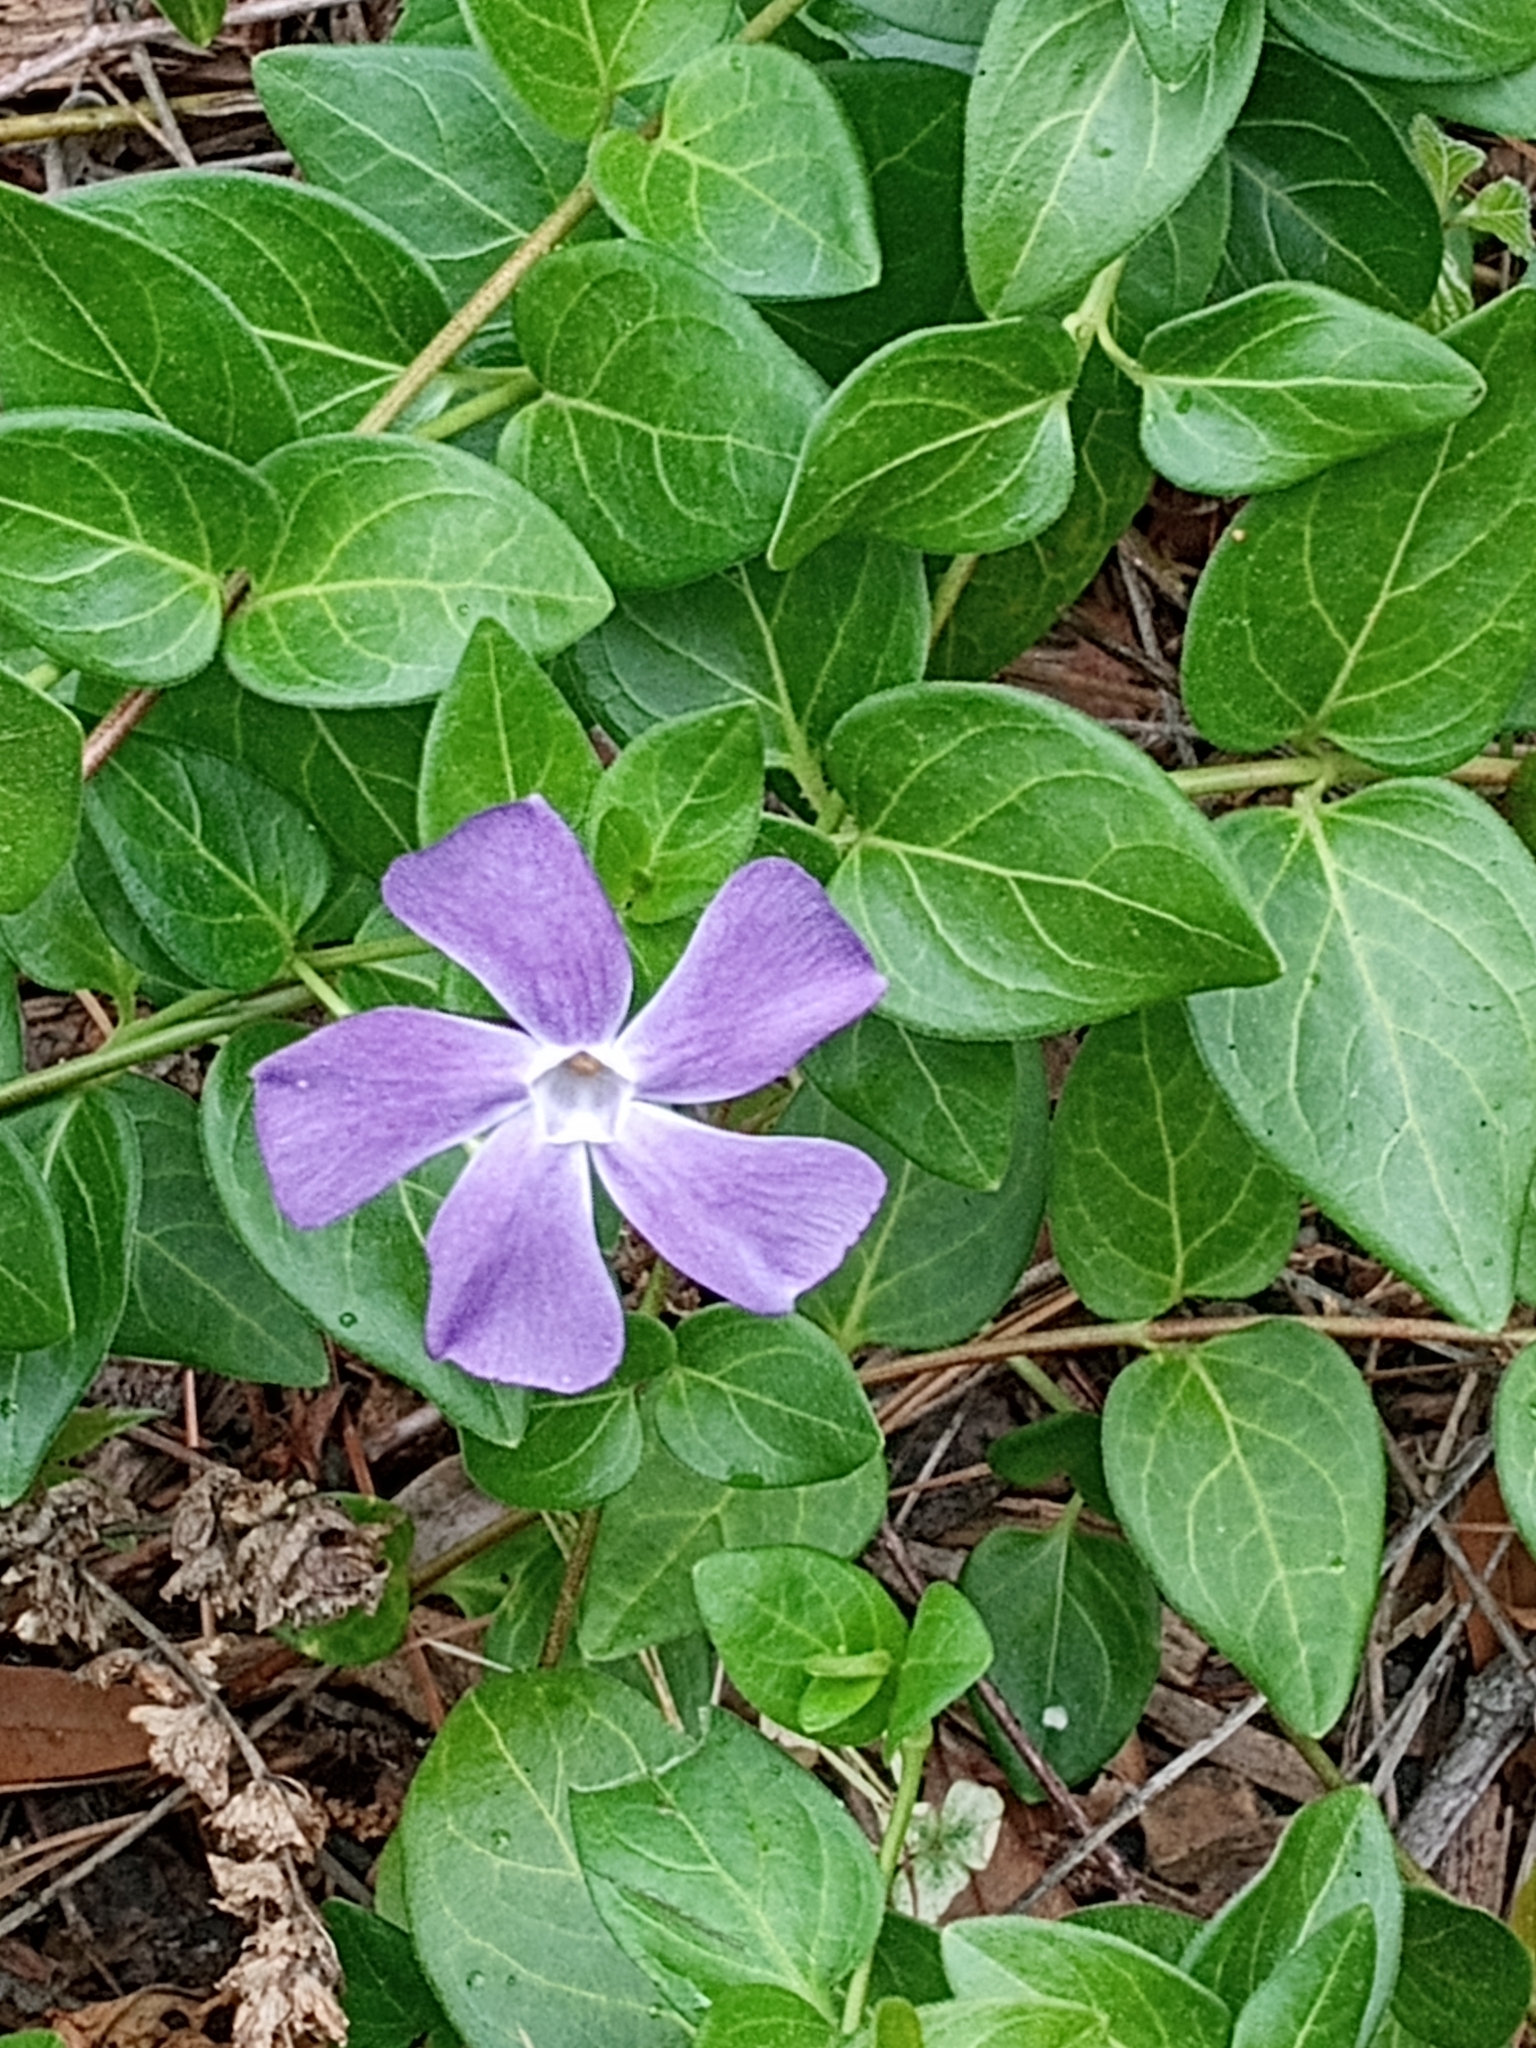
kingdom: Plantae
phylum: Tracheophyta
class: Magnoliopsida
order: Gentianales
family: Apocynaceae
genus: Vinca
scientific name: Vinca major
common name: Greater periwinkle
